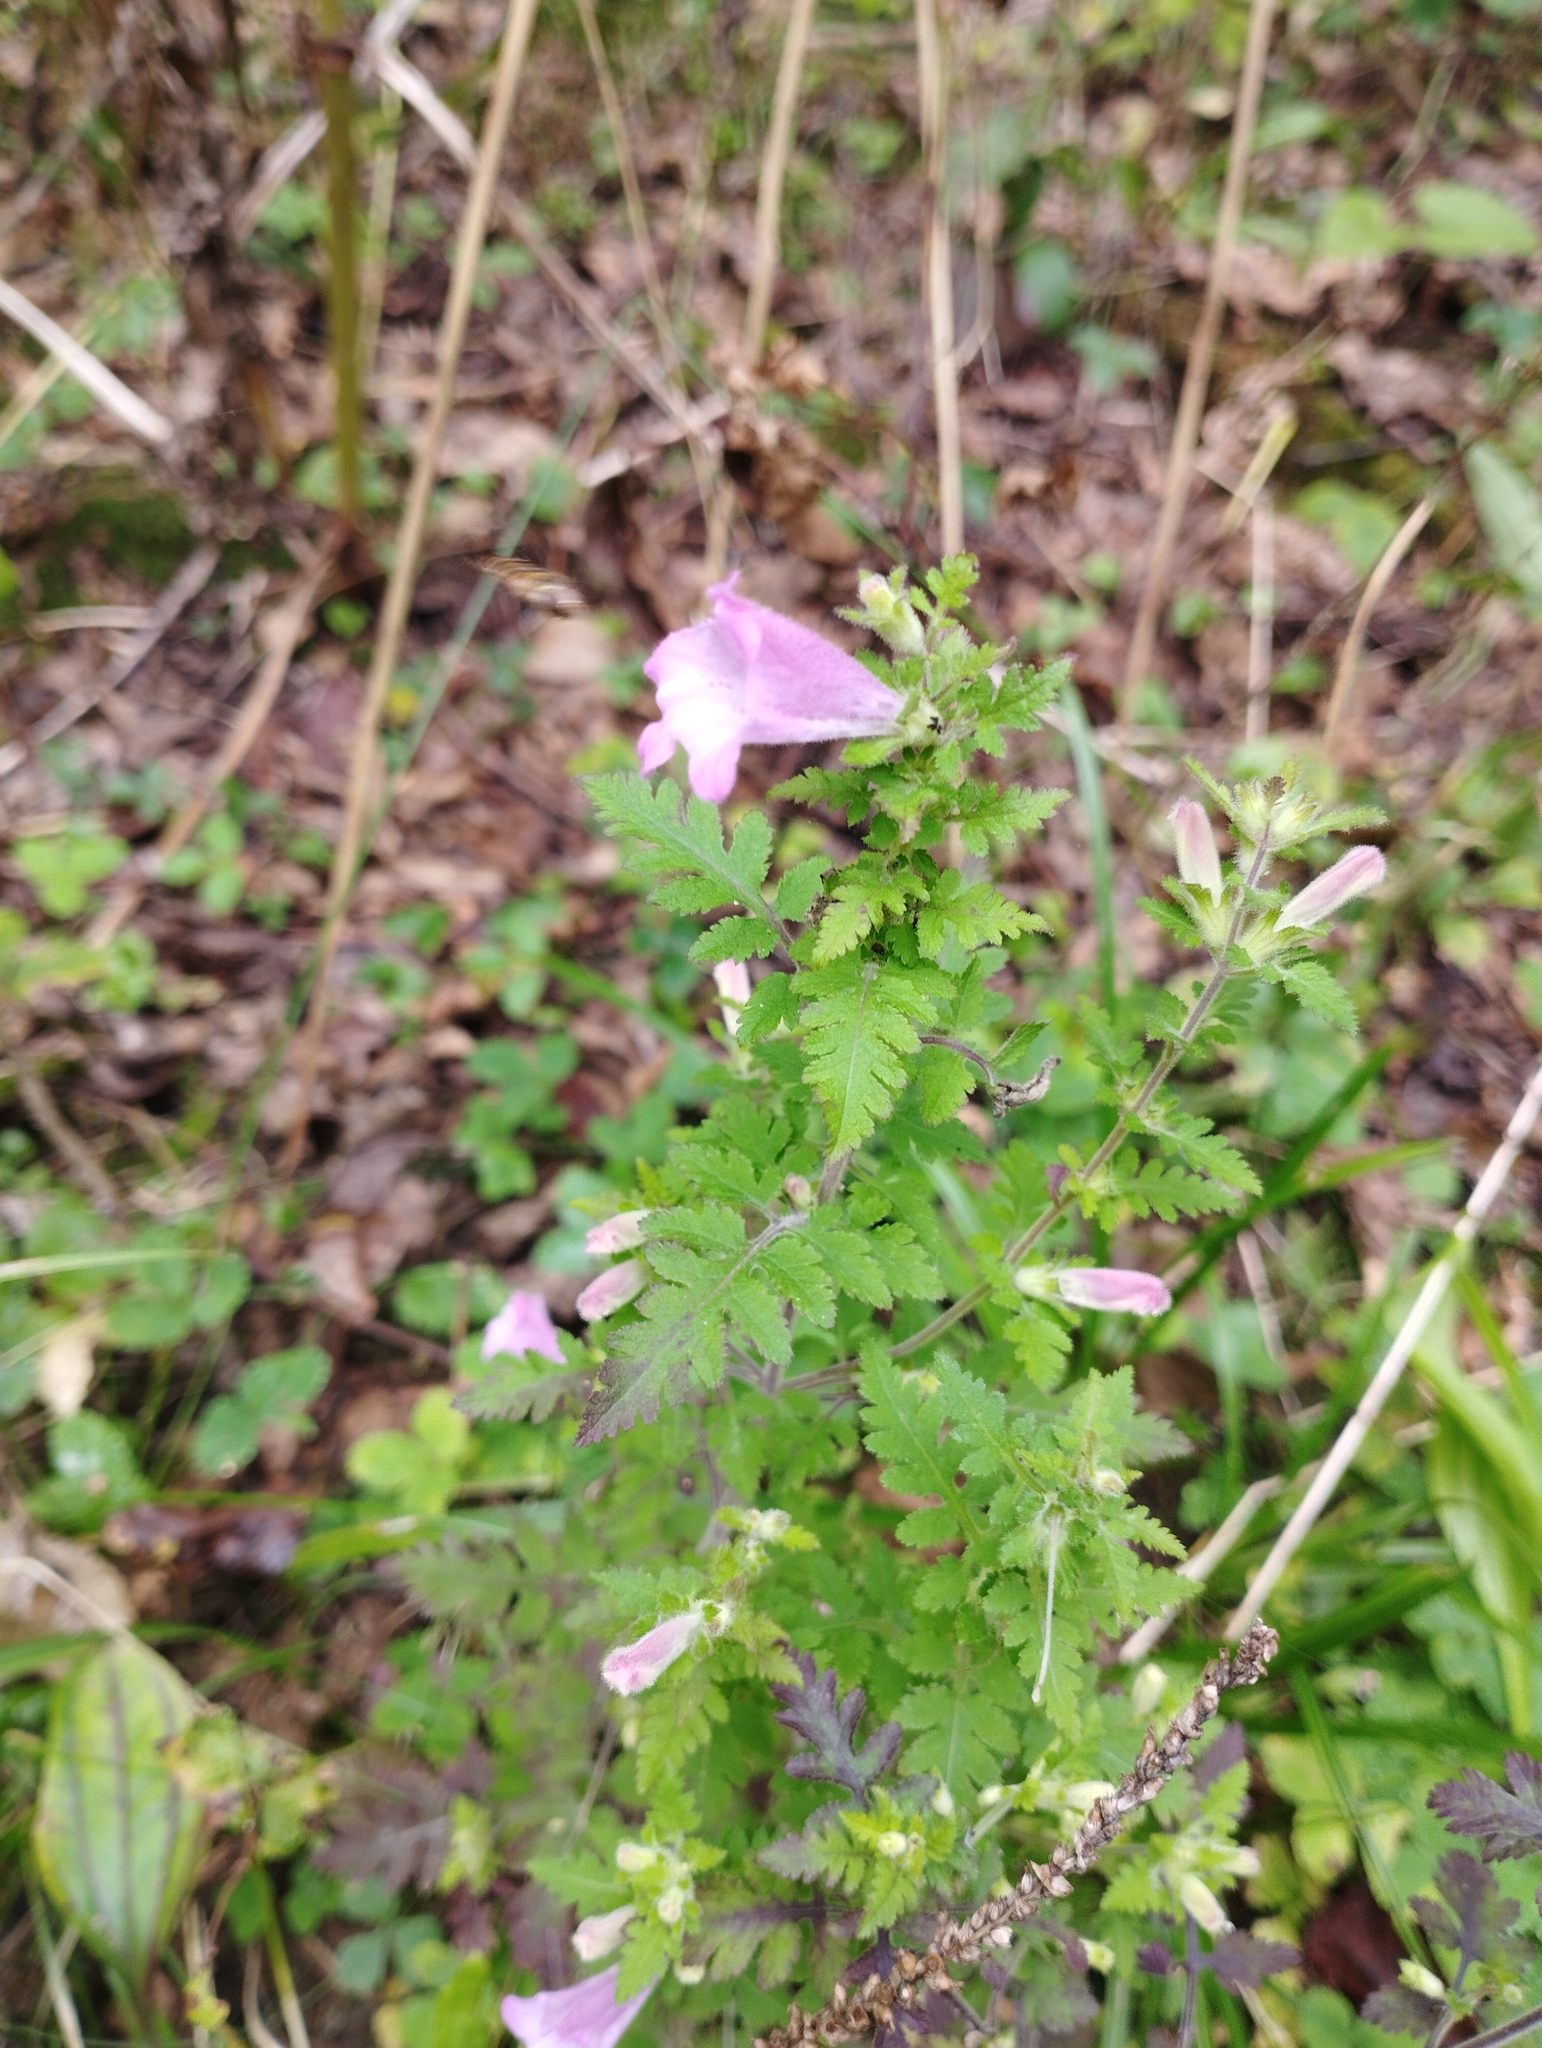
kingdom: Plantae
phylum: Tracheophyta
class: Magnoliopsida
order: Lamiales
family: Orobanchaceae
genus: Phtheirospermum
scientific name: Phtheirospermum japonicum
